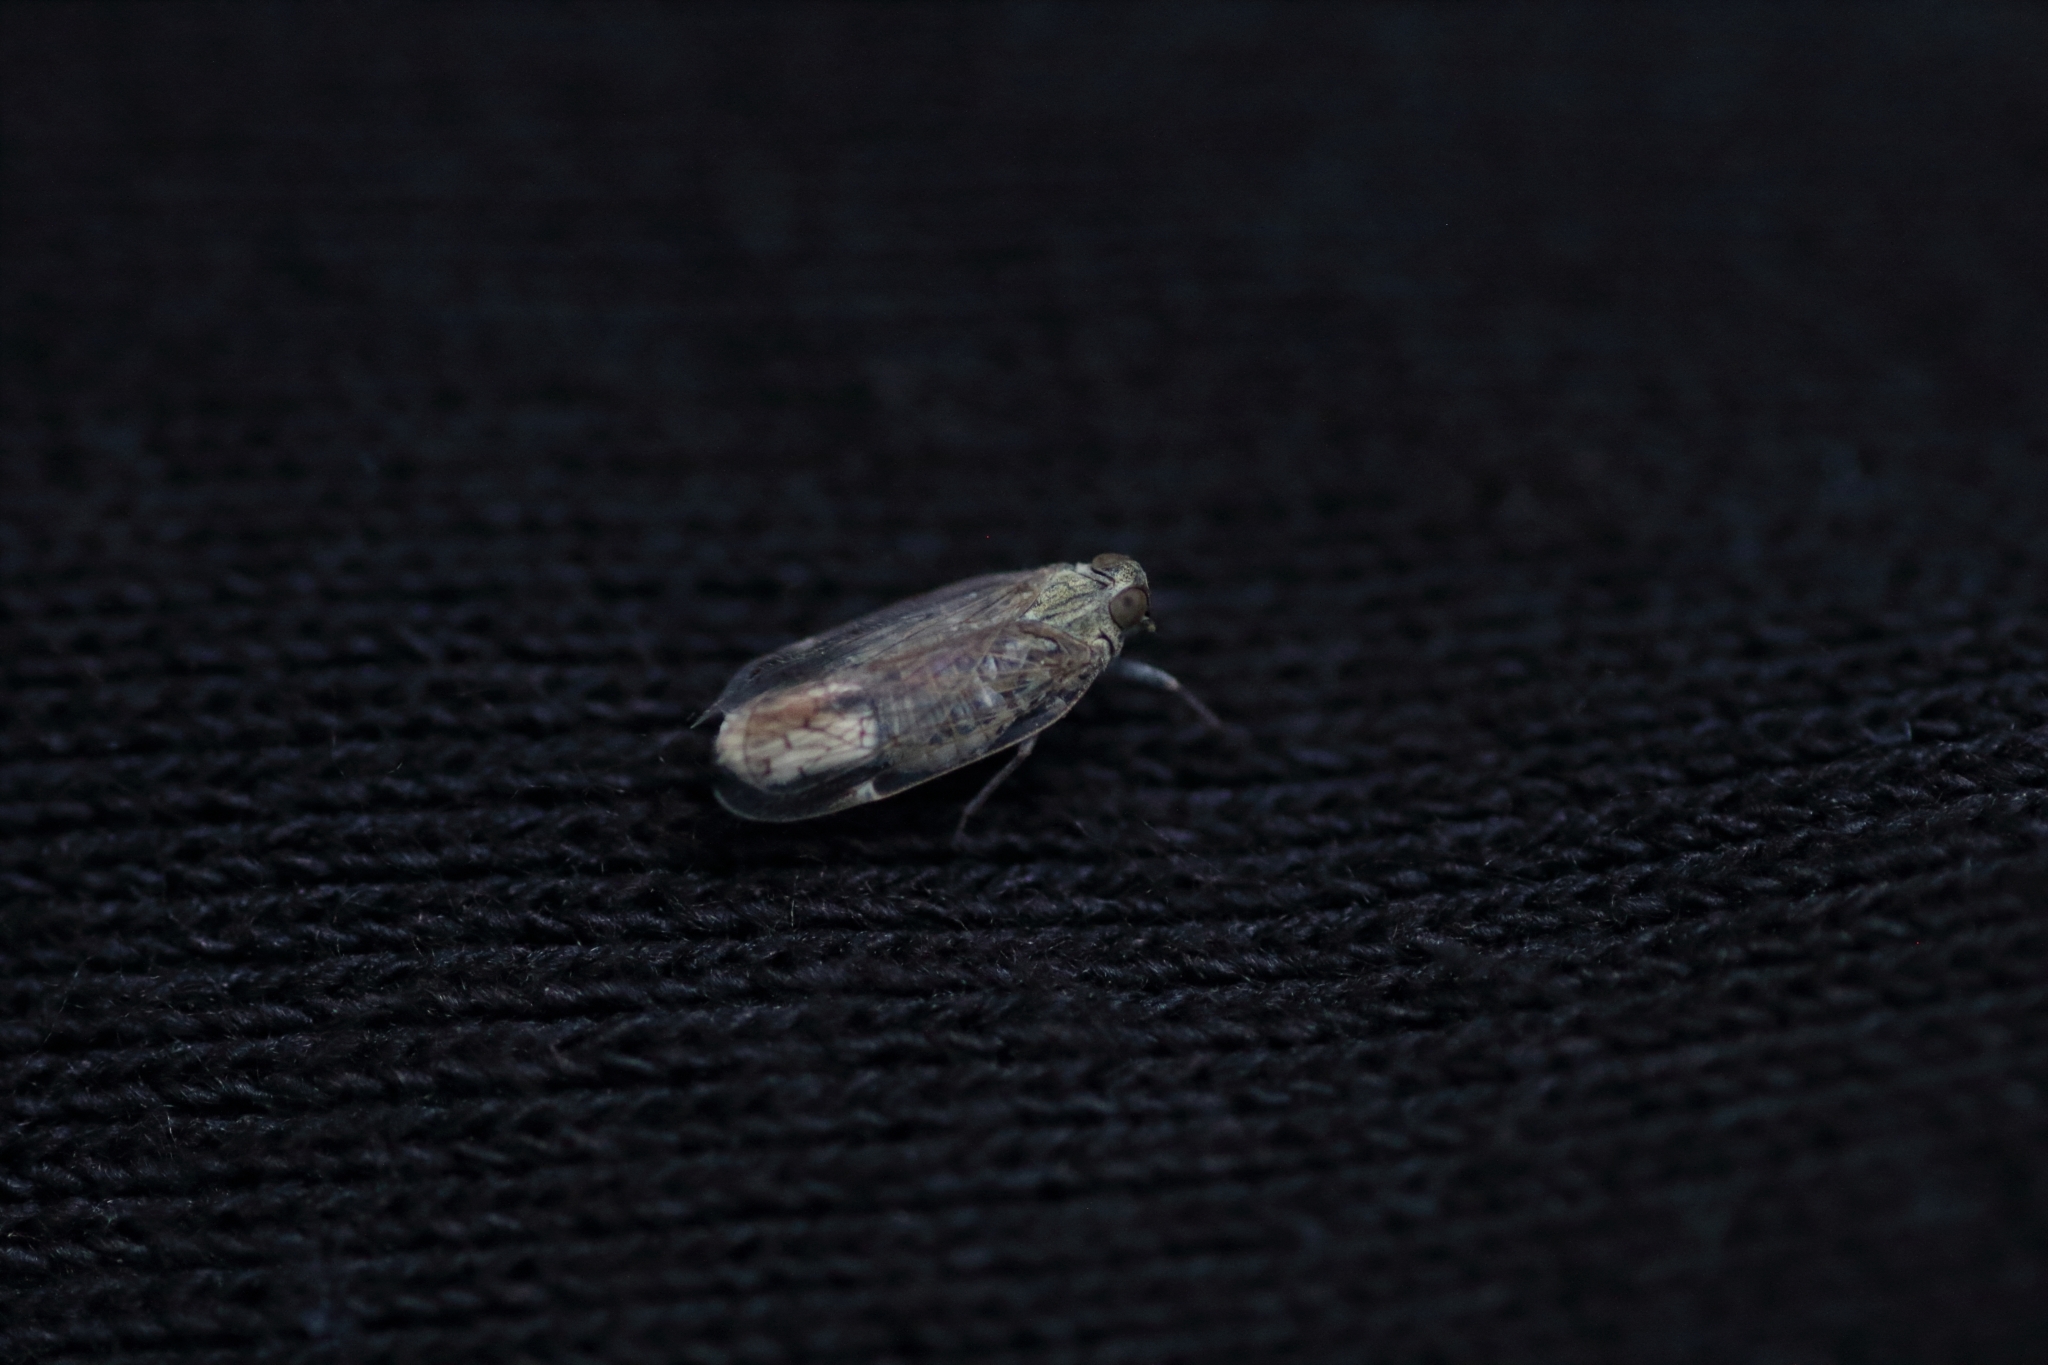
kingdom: Animalia
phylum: Arthropoda
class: Insecta
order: Hemiptera
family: Cixiidae
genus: Reptalus
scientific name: Reptalus panzeri
